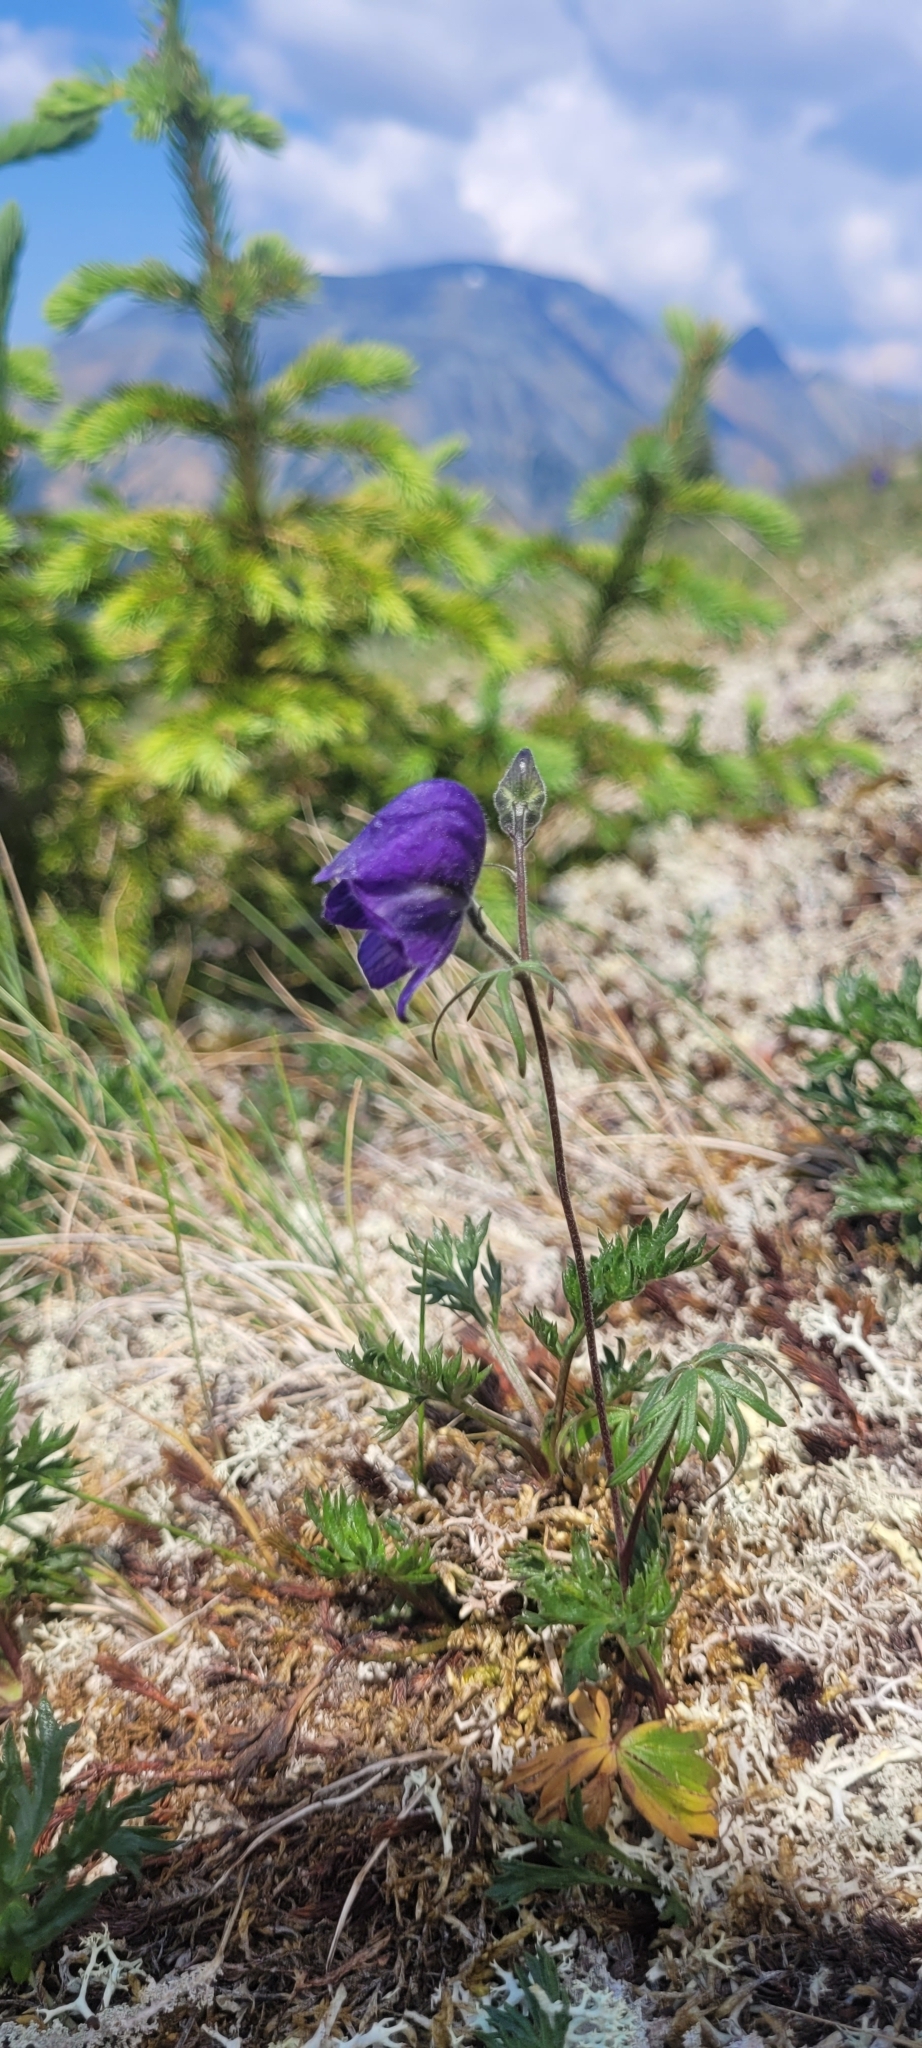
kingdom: Plantae
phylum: Tracheophyta
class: Magnoliopsida
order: Ranunculales
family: Ranunculaceae
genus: Aconitum
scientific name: Aconitum delphiniifolium
